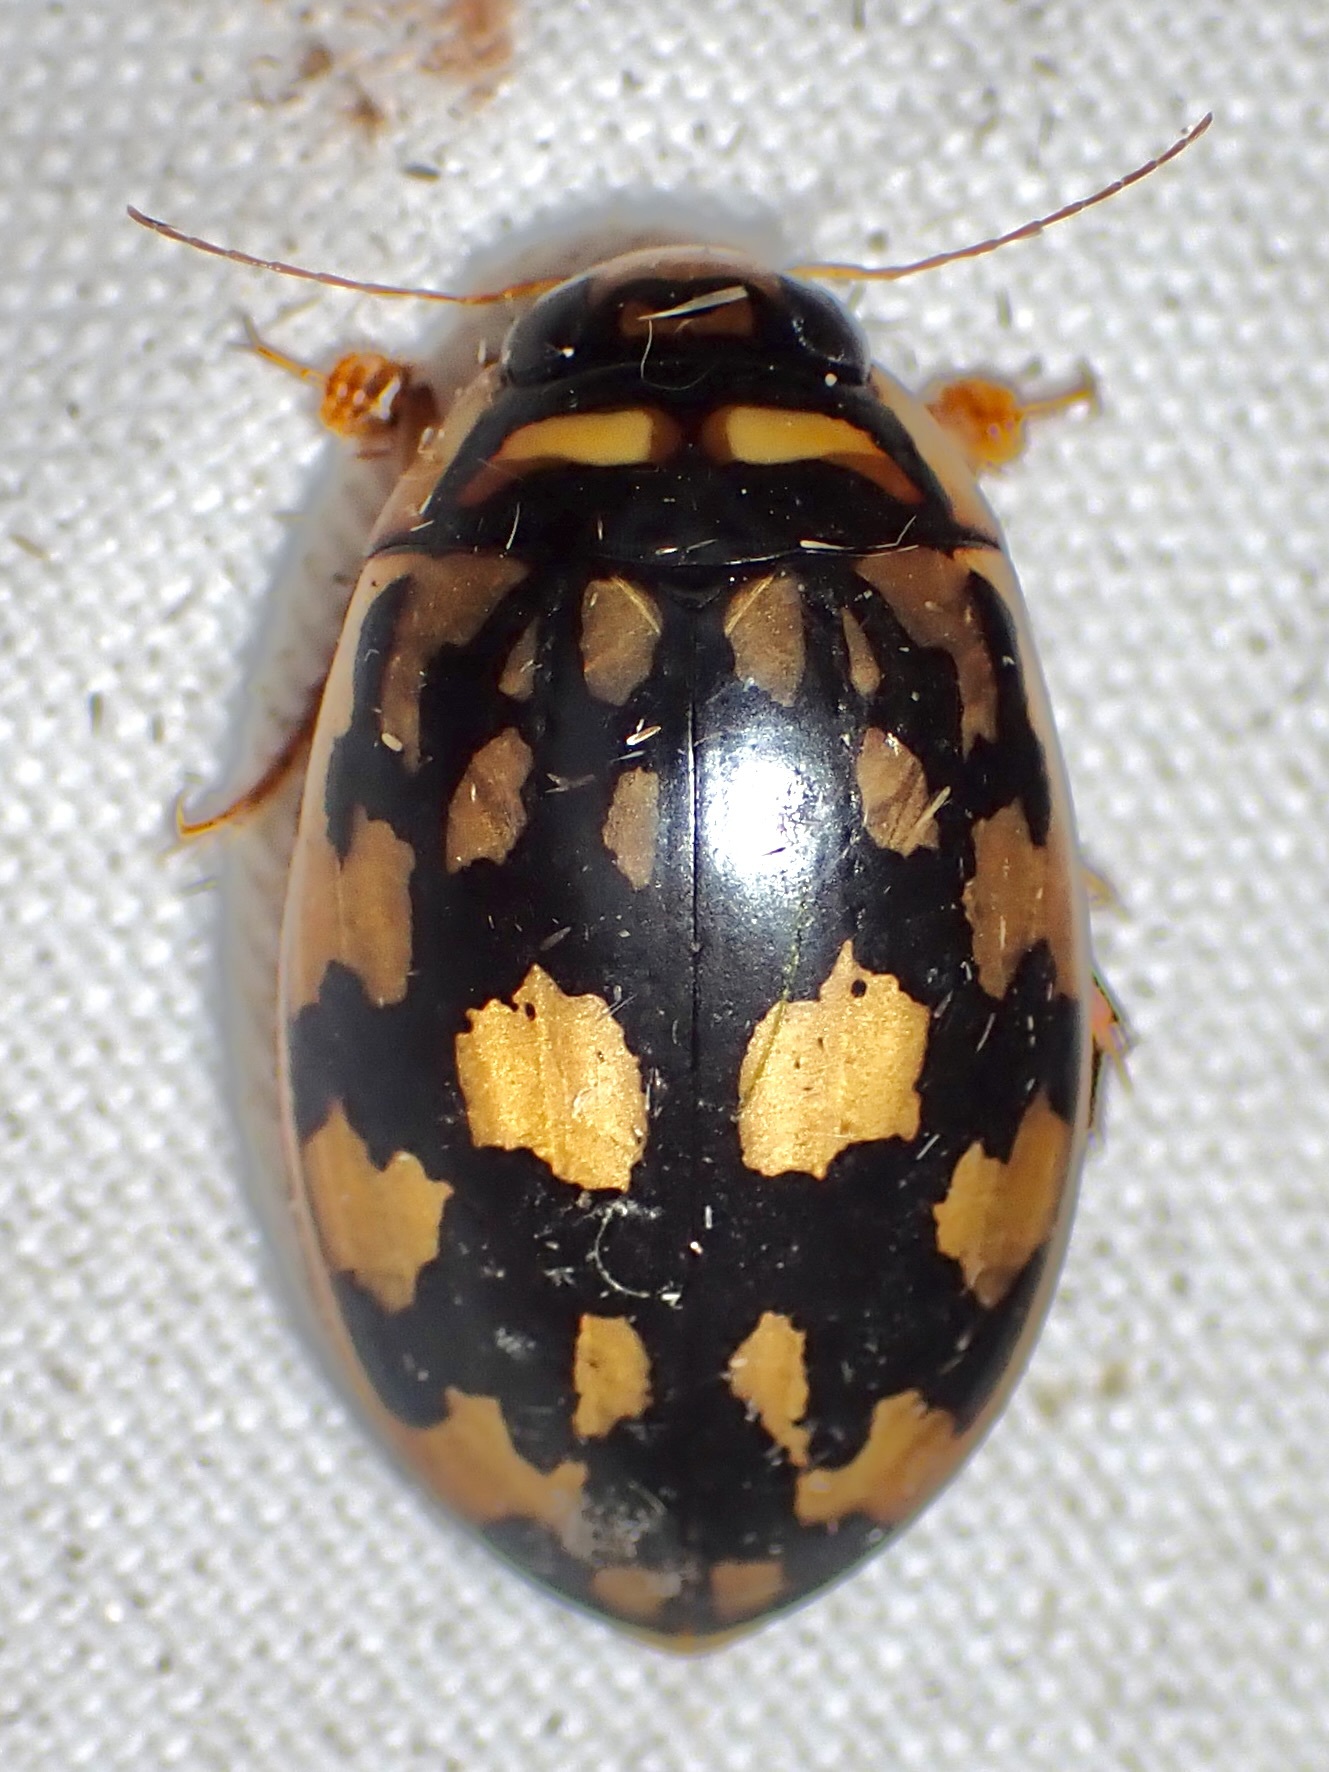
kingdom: Animalia
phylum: Arthropoda
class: Insecta
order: Coleoptera
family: Dytiscidae
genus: Thermonectus
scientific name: Thermonectus marmoratus
